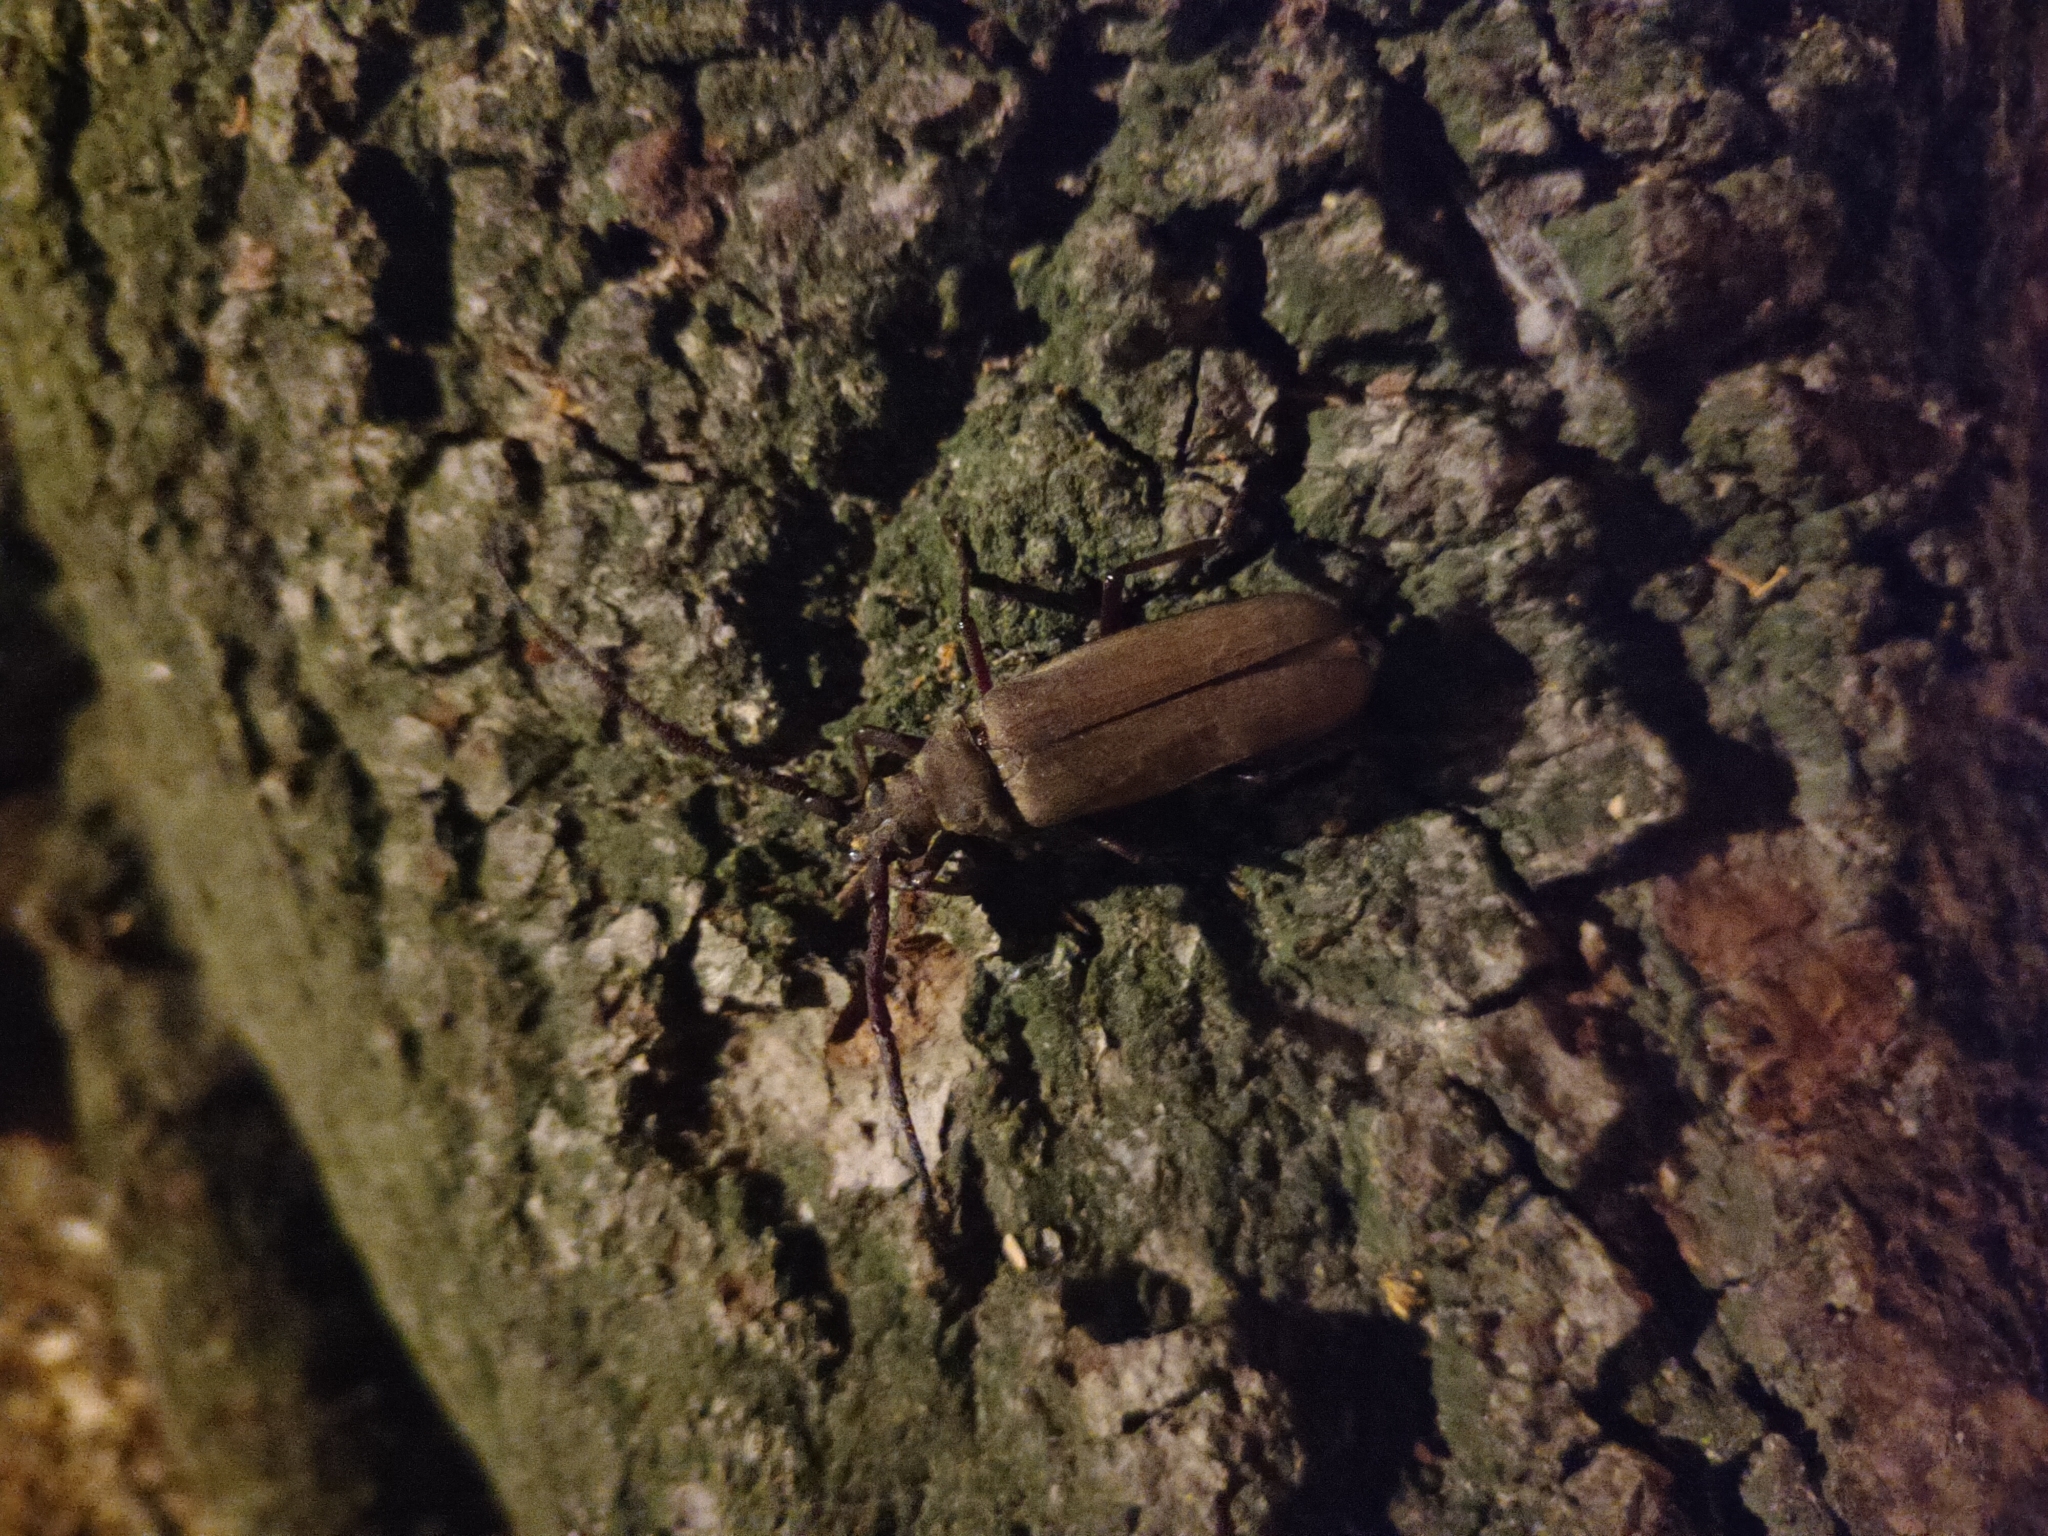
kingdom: Animalia
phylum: Arthropoda
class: Insecta
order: Coleoptera
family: Cerambycidae
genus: Aegosoma
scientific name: Aegosoma scabricorne
